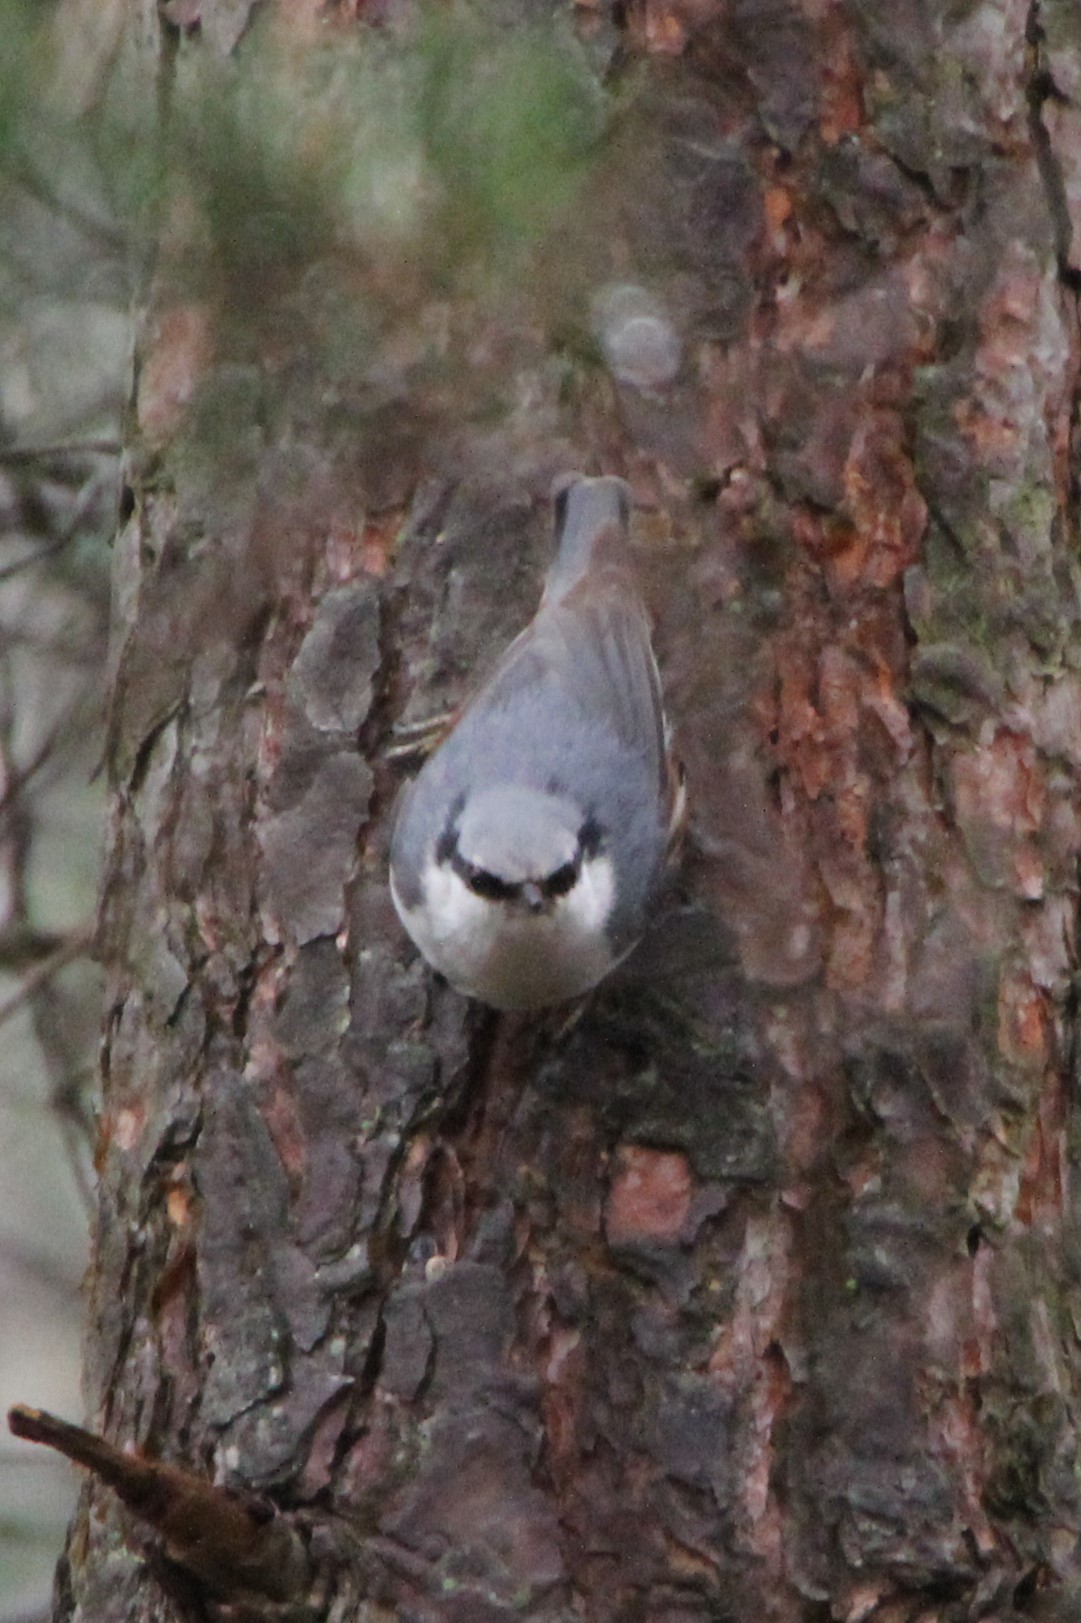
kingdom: Animalia
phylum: Chordata
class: Aves
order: Passeriformes
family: Sittidae
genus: Sitta
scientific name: Sitta europaea
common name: Eurasian nuthatch
